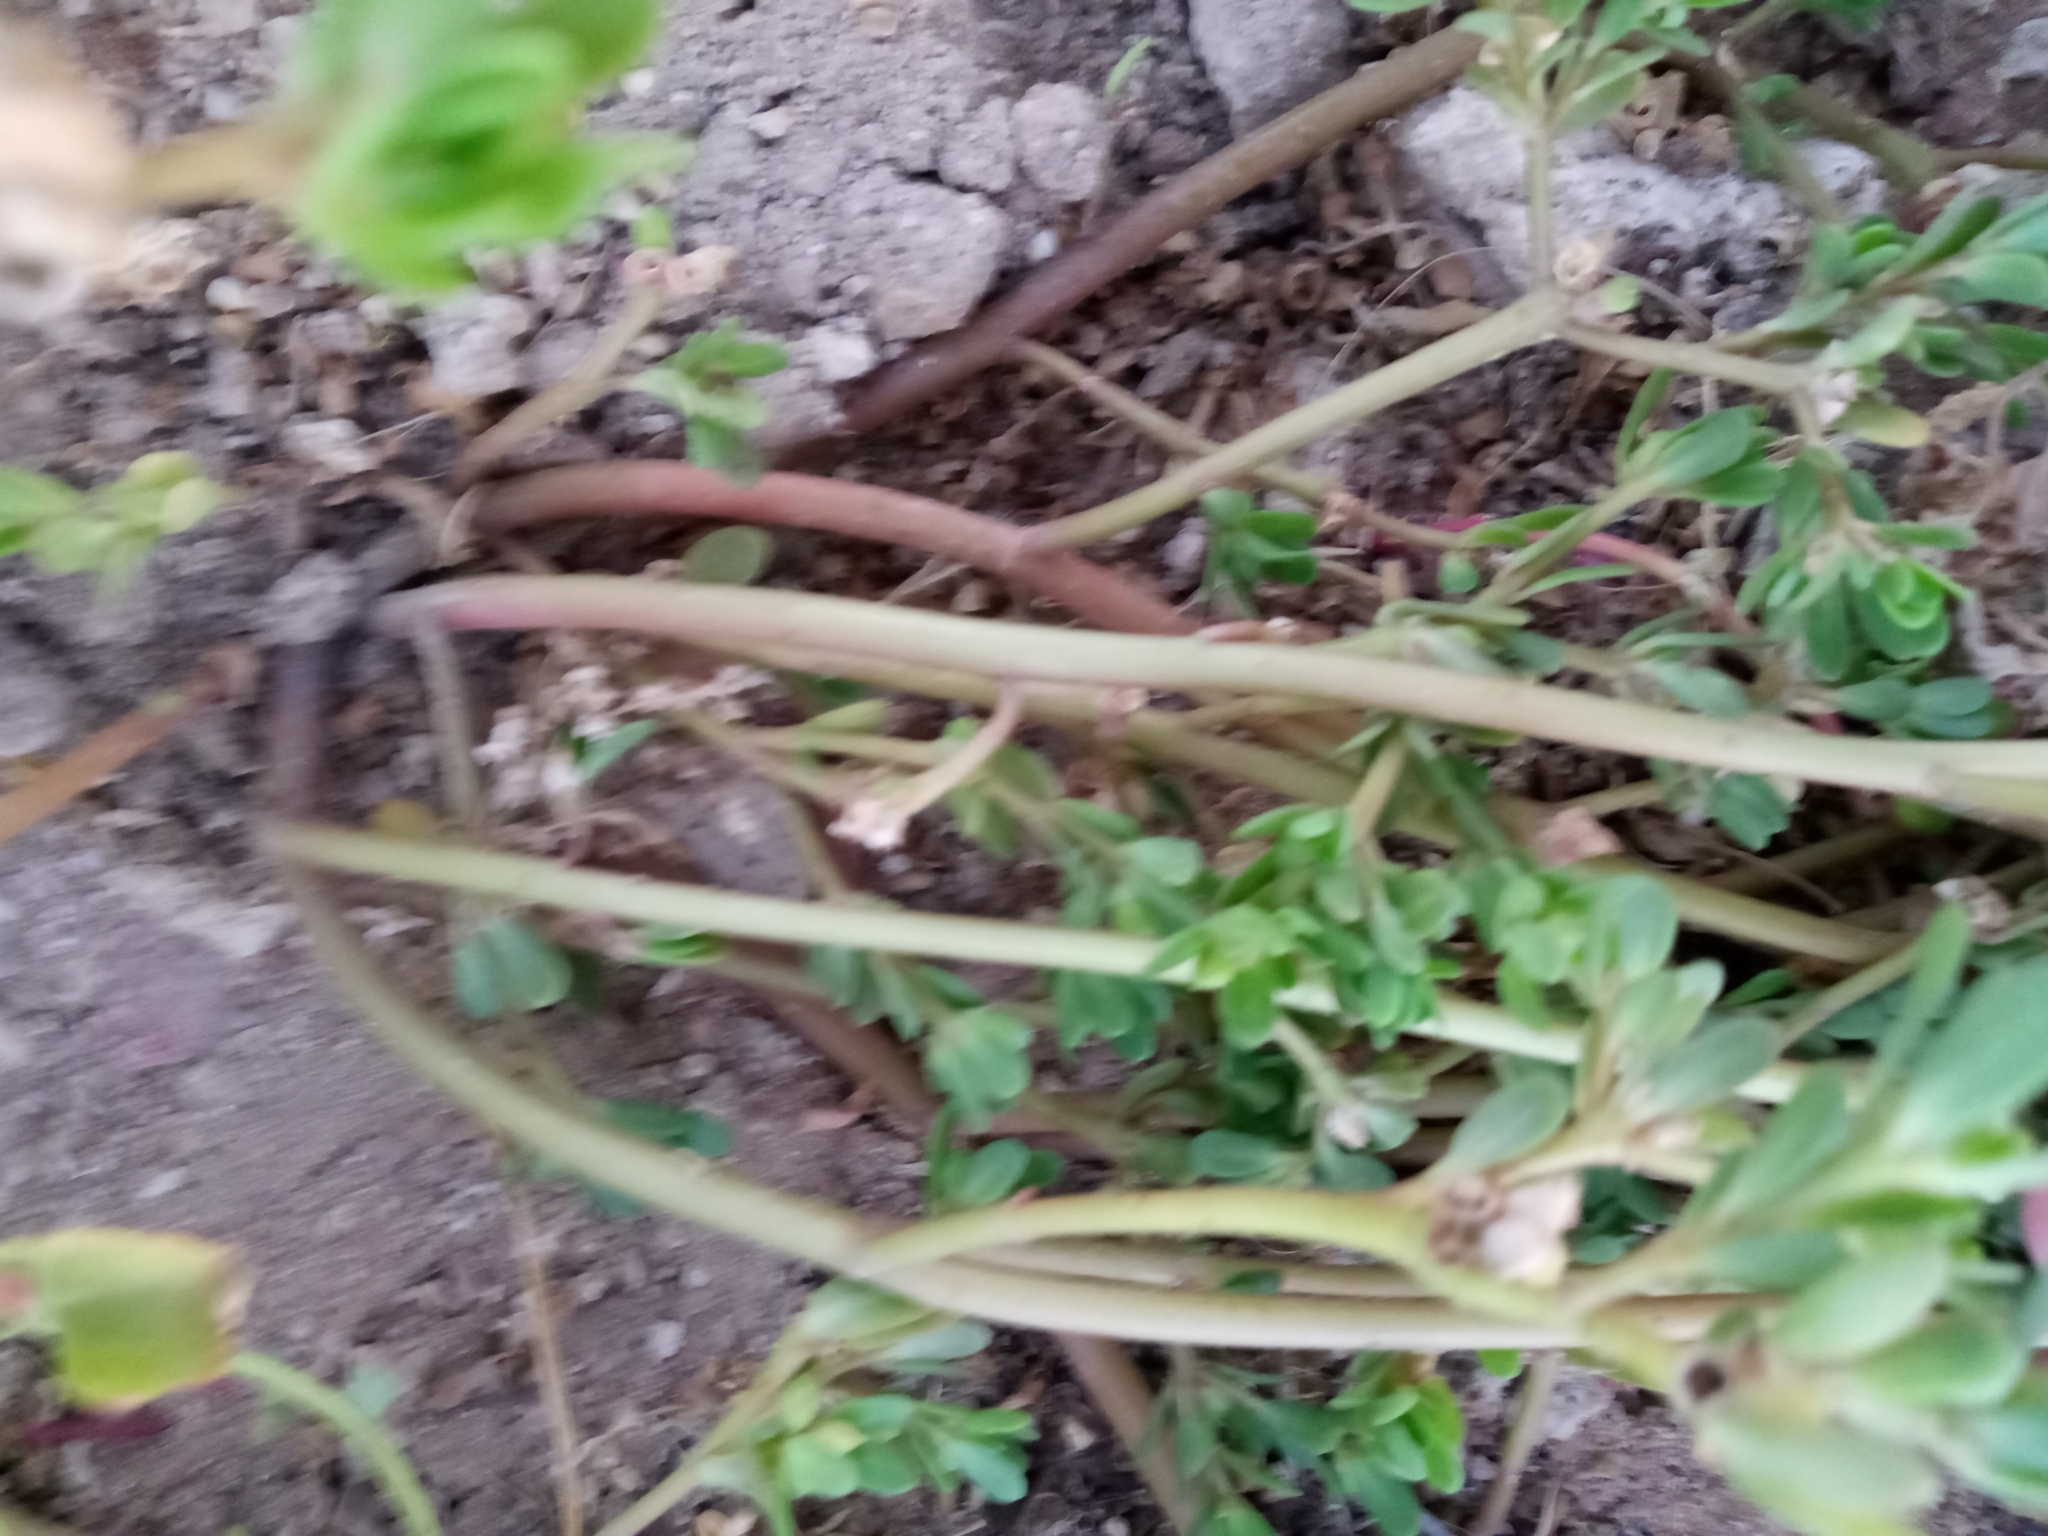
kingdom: Plantae
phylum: Tracheophyta
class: Magnoliopsida
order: Caryophyllales
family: Portulacaceae
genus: Portulaca
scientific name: Portulaca oleracea
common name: Common purslane
